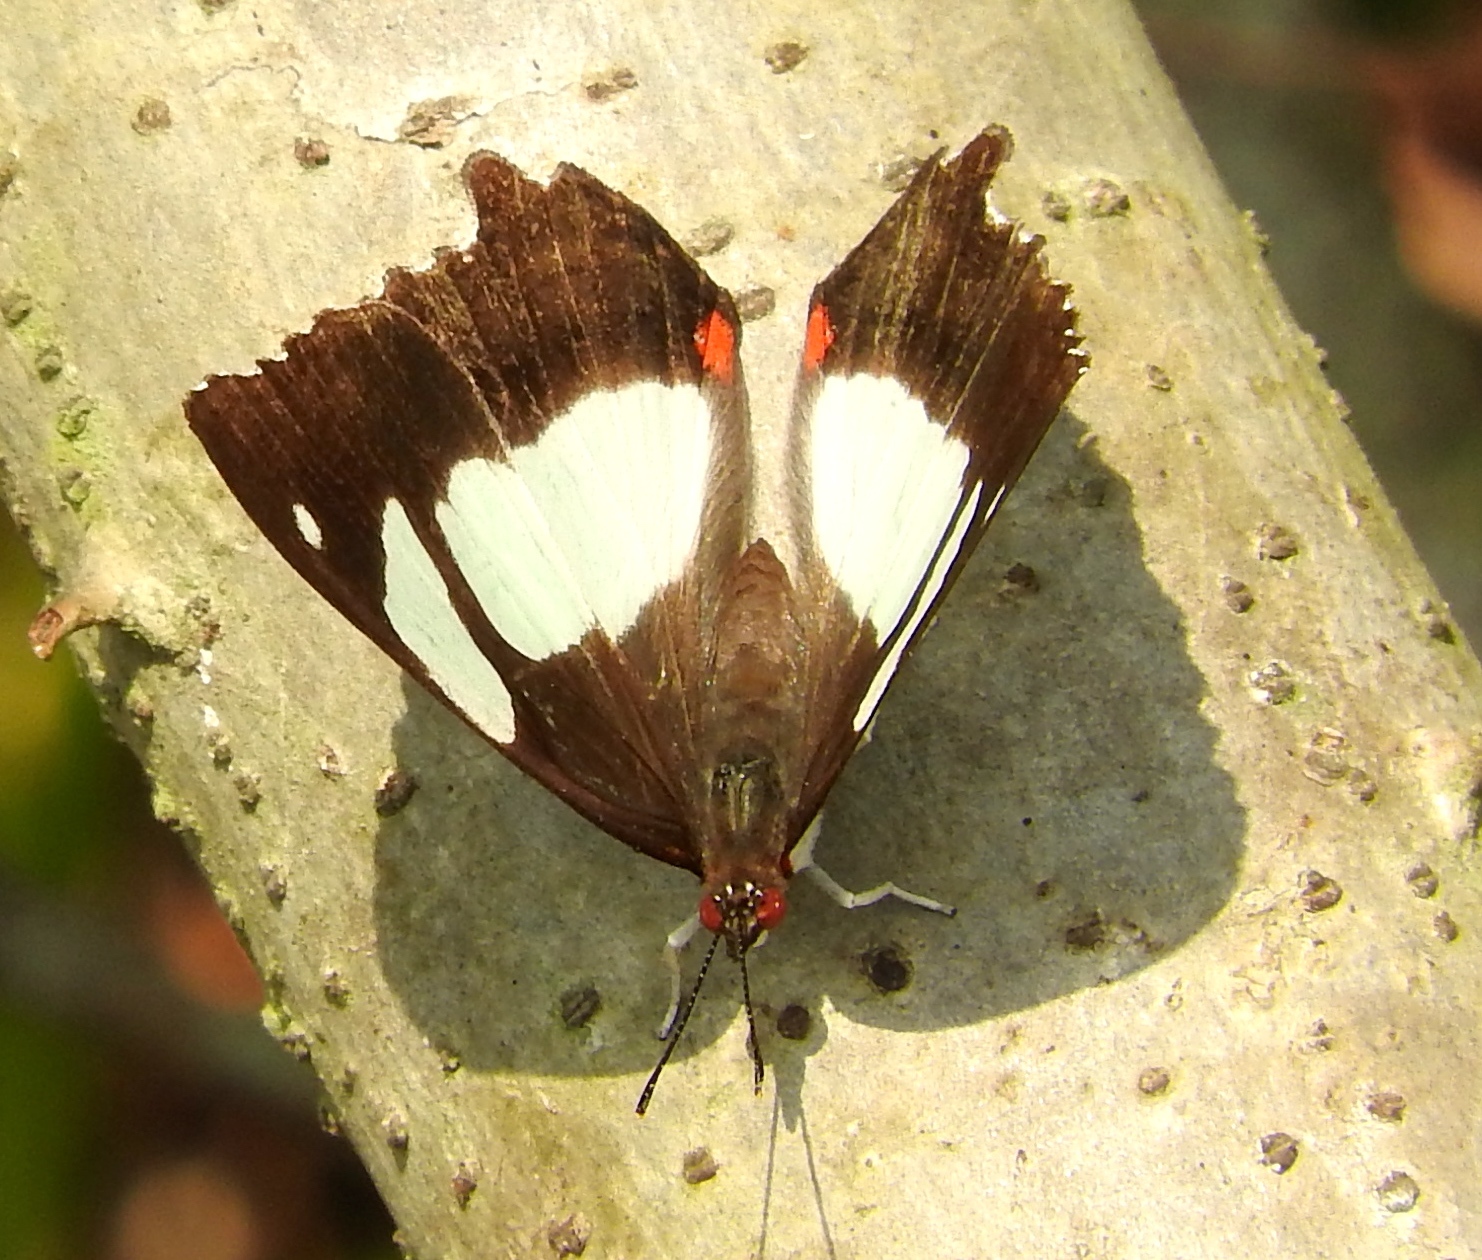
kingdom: Animalia
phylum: Arthropoda
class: Insecta
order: Lepidoptera
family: Nymphalidae
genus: Pyrrhogyra
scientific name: Pyrrhogyra neaerea
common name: Leading red-ring
